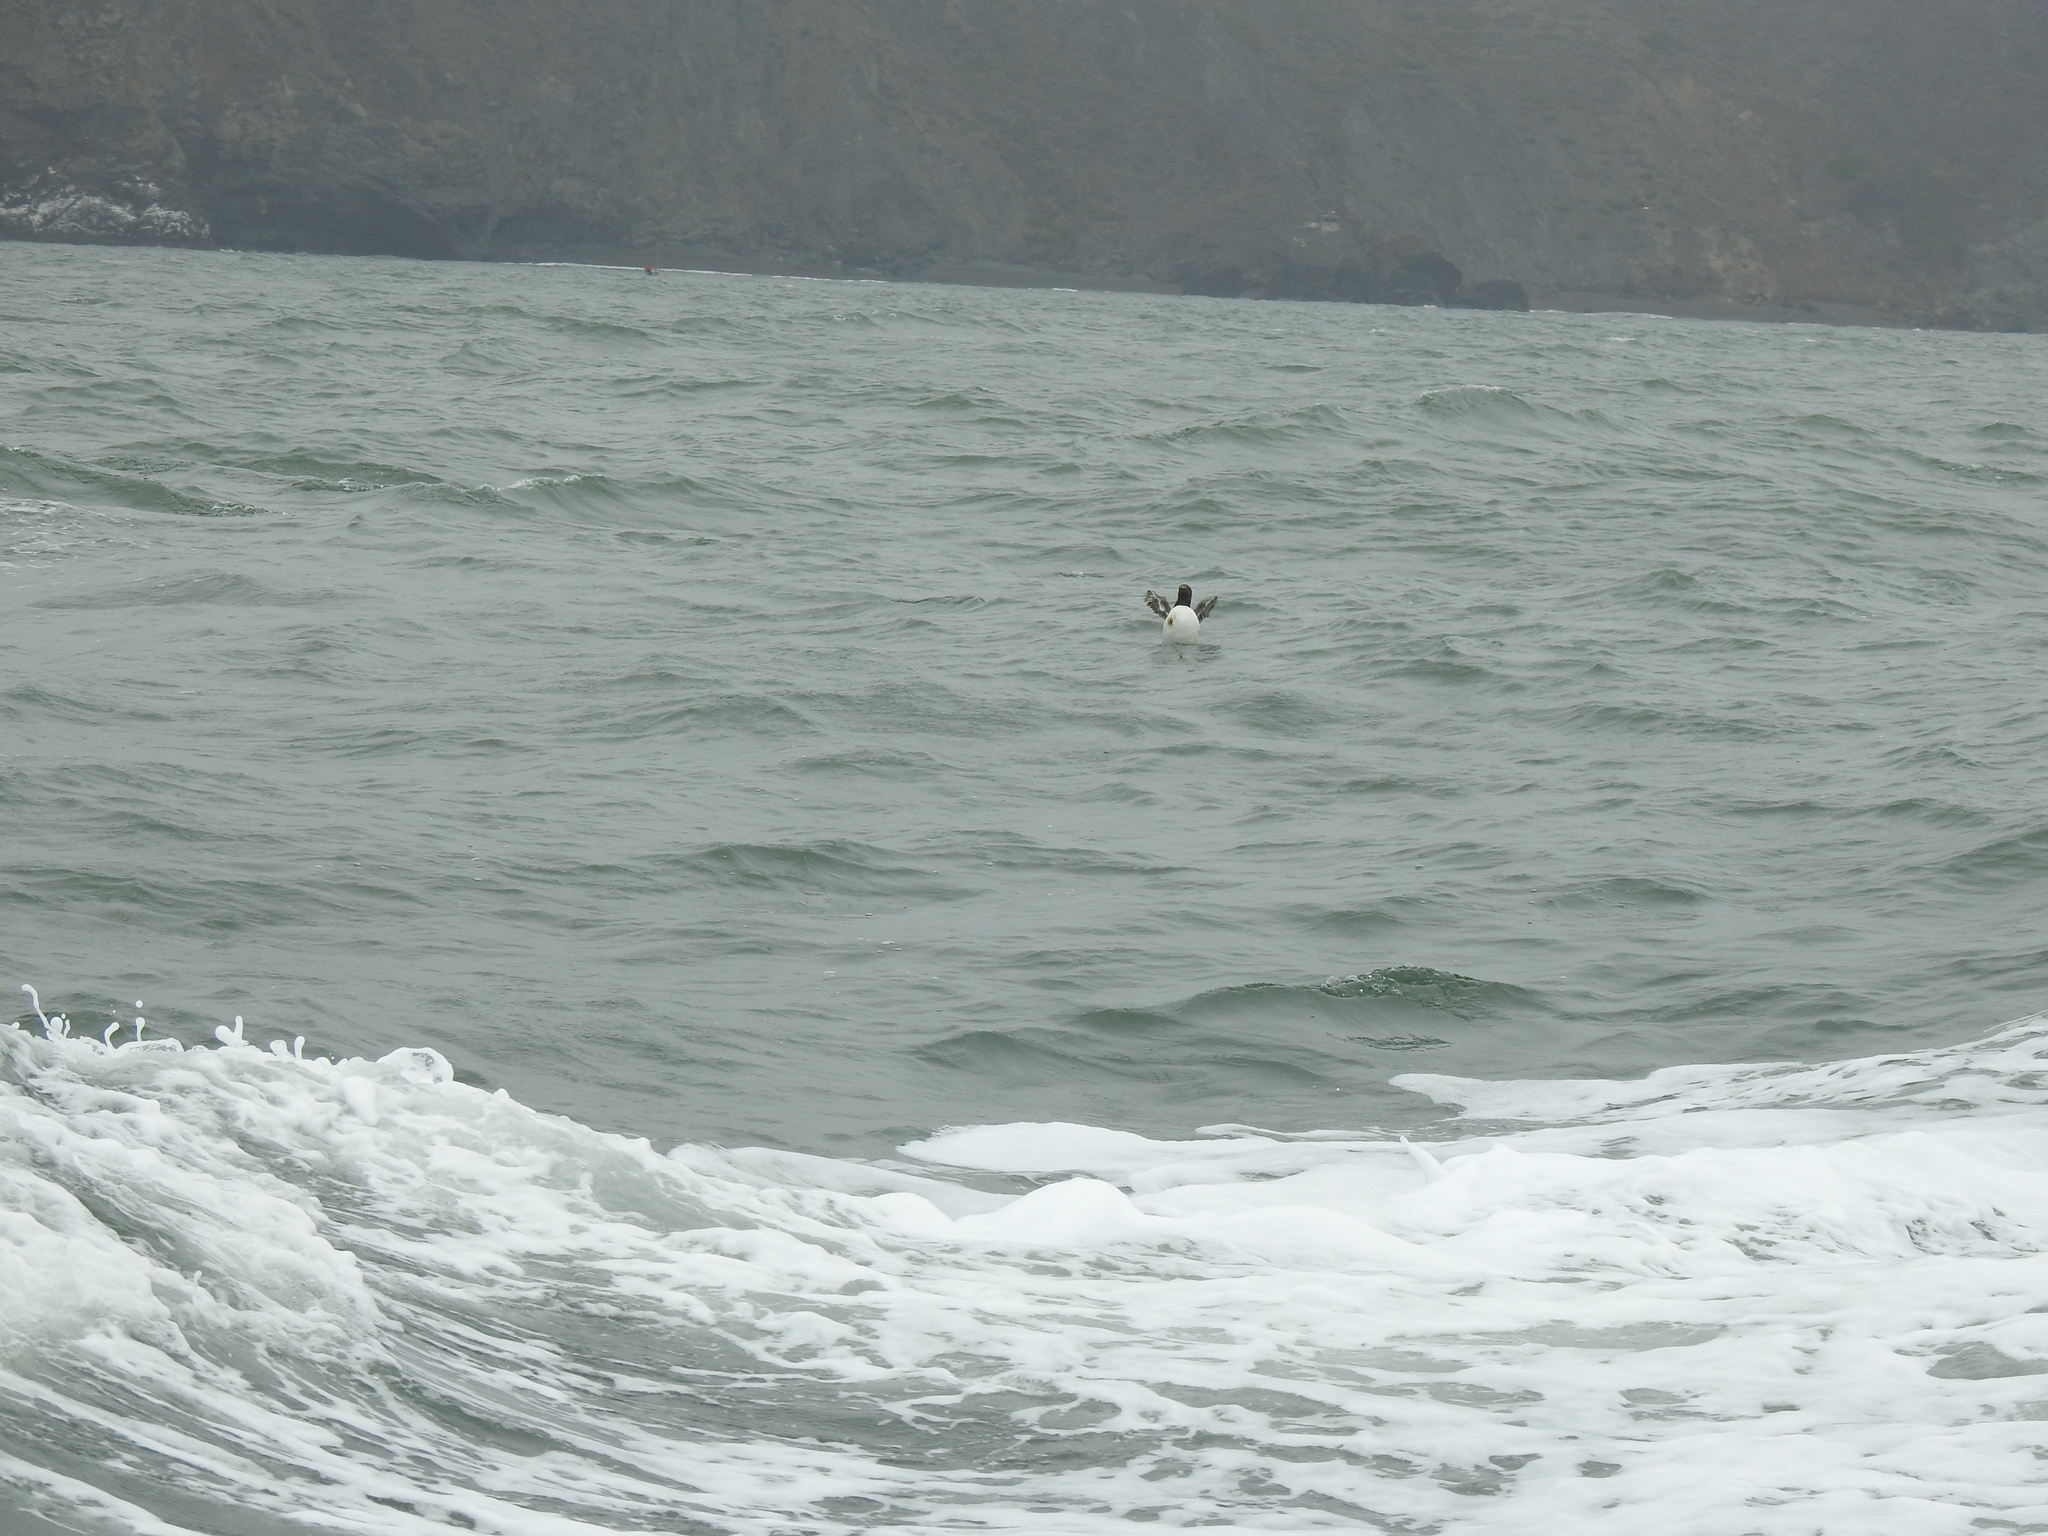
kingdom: Animalia
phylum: Chordata
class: Aves
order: Charadriiformes
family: Alcidae
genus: Uria
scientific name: Uria aalge
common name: Common murre
